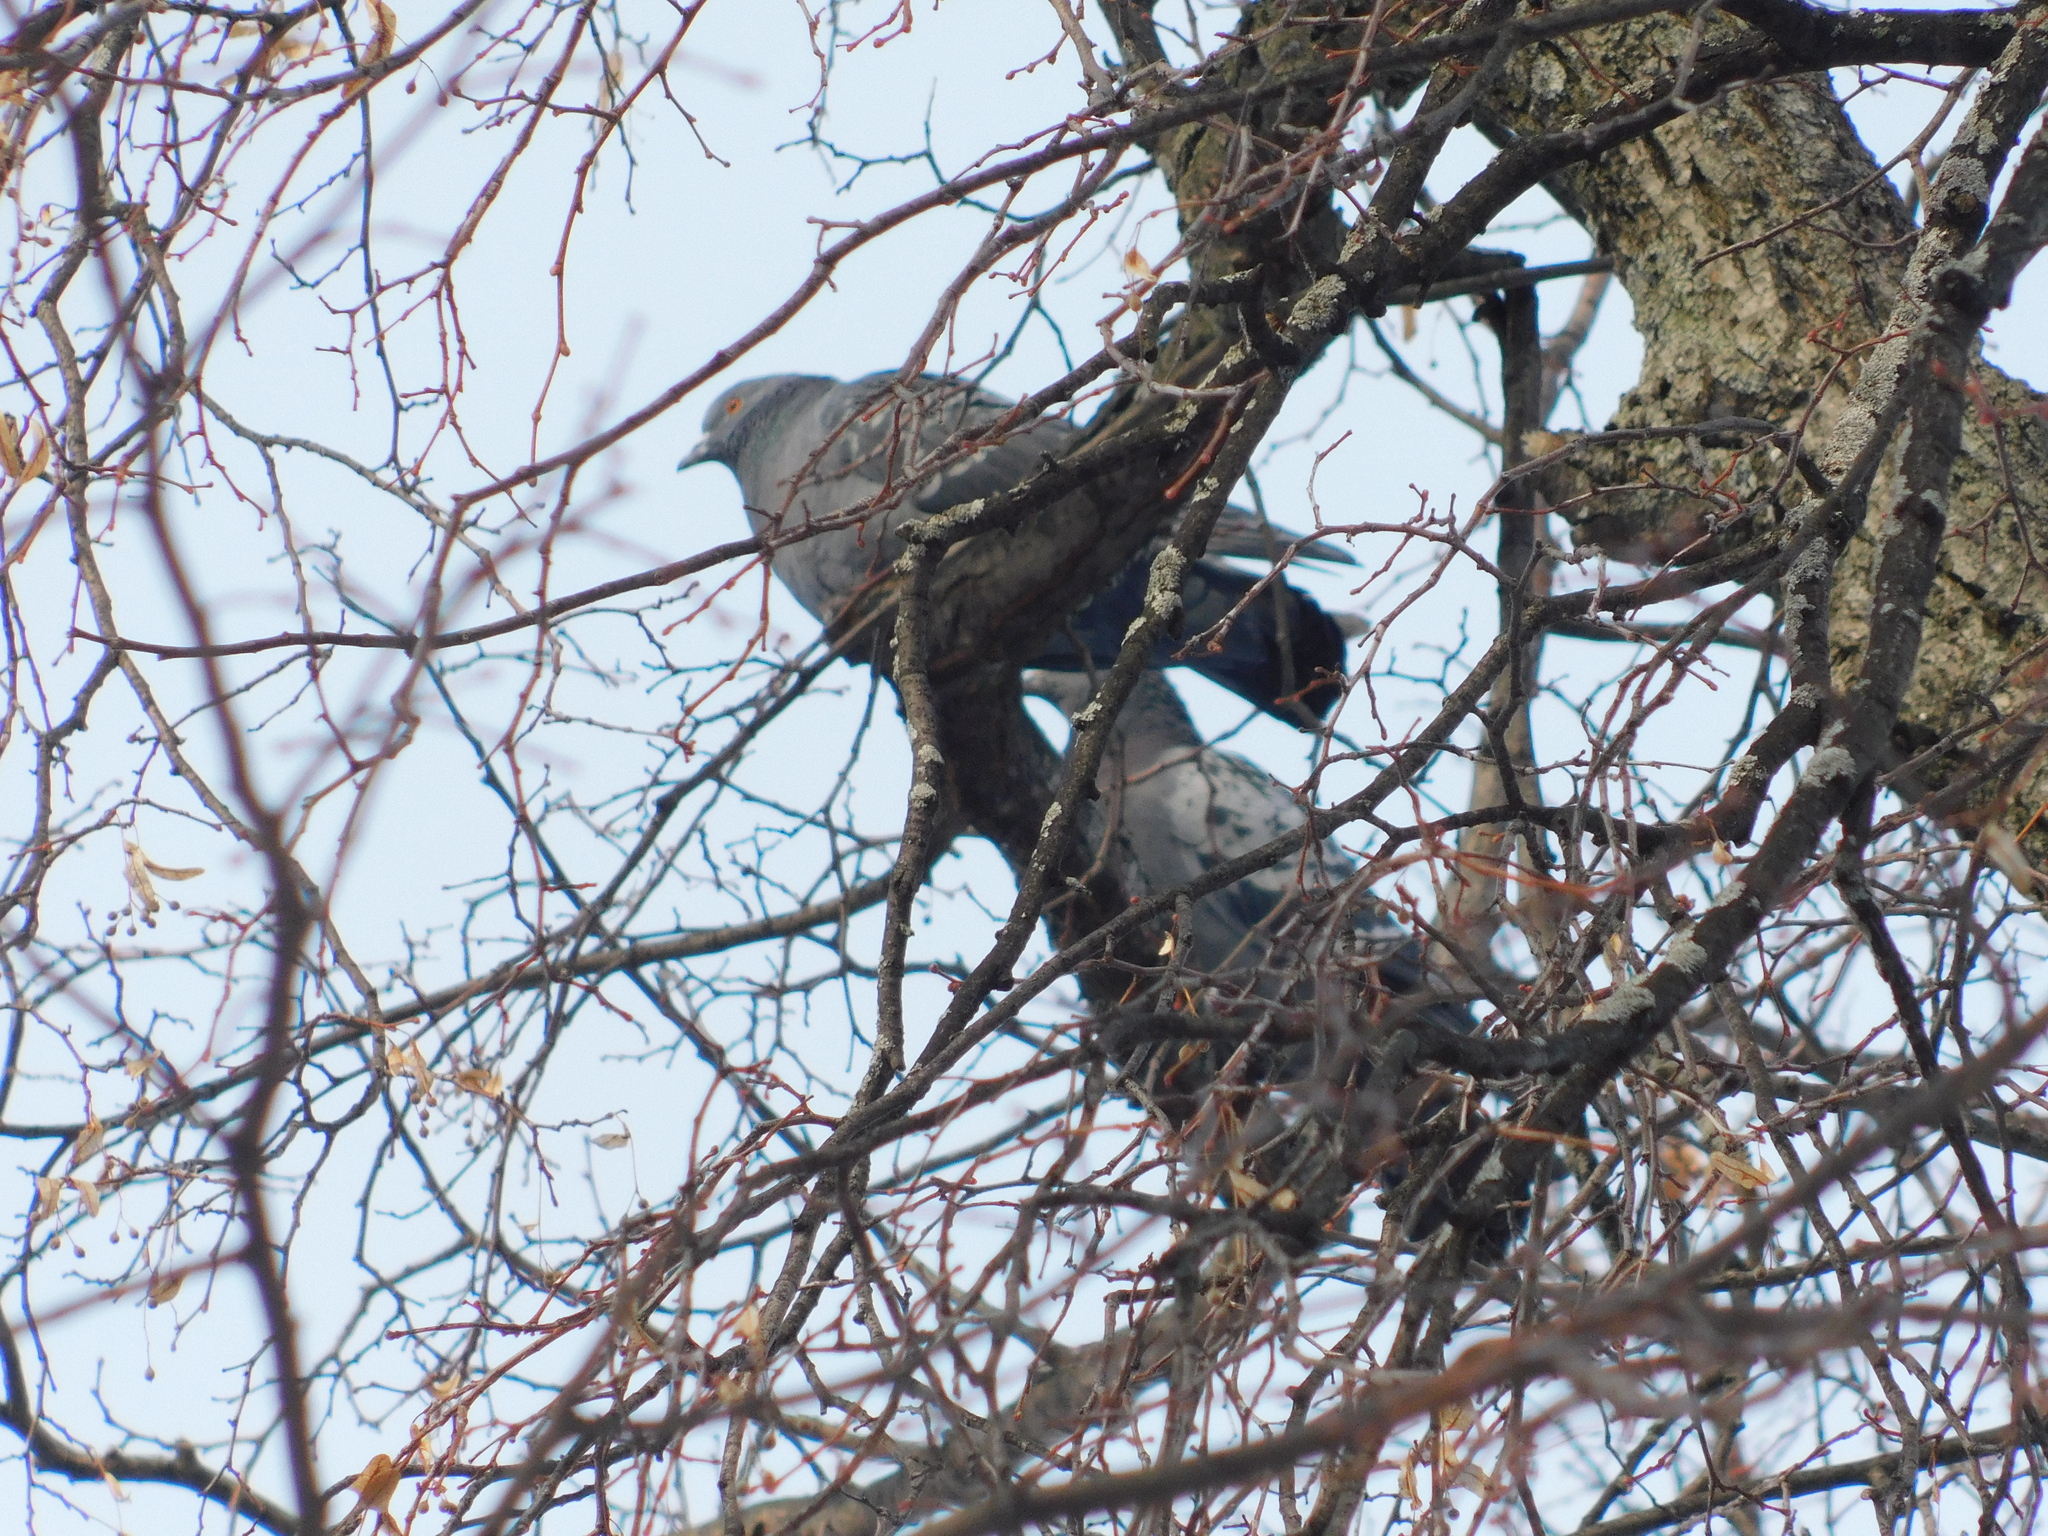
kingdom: Animalia
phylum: Chordata
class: Aves
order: Columbiformes
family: Columbidae
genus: Columba
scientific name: Columba livia
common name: Rock pigeon
